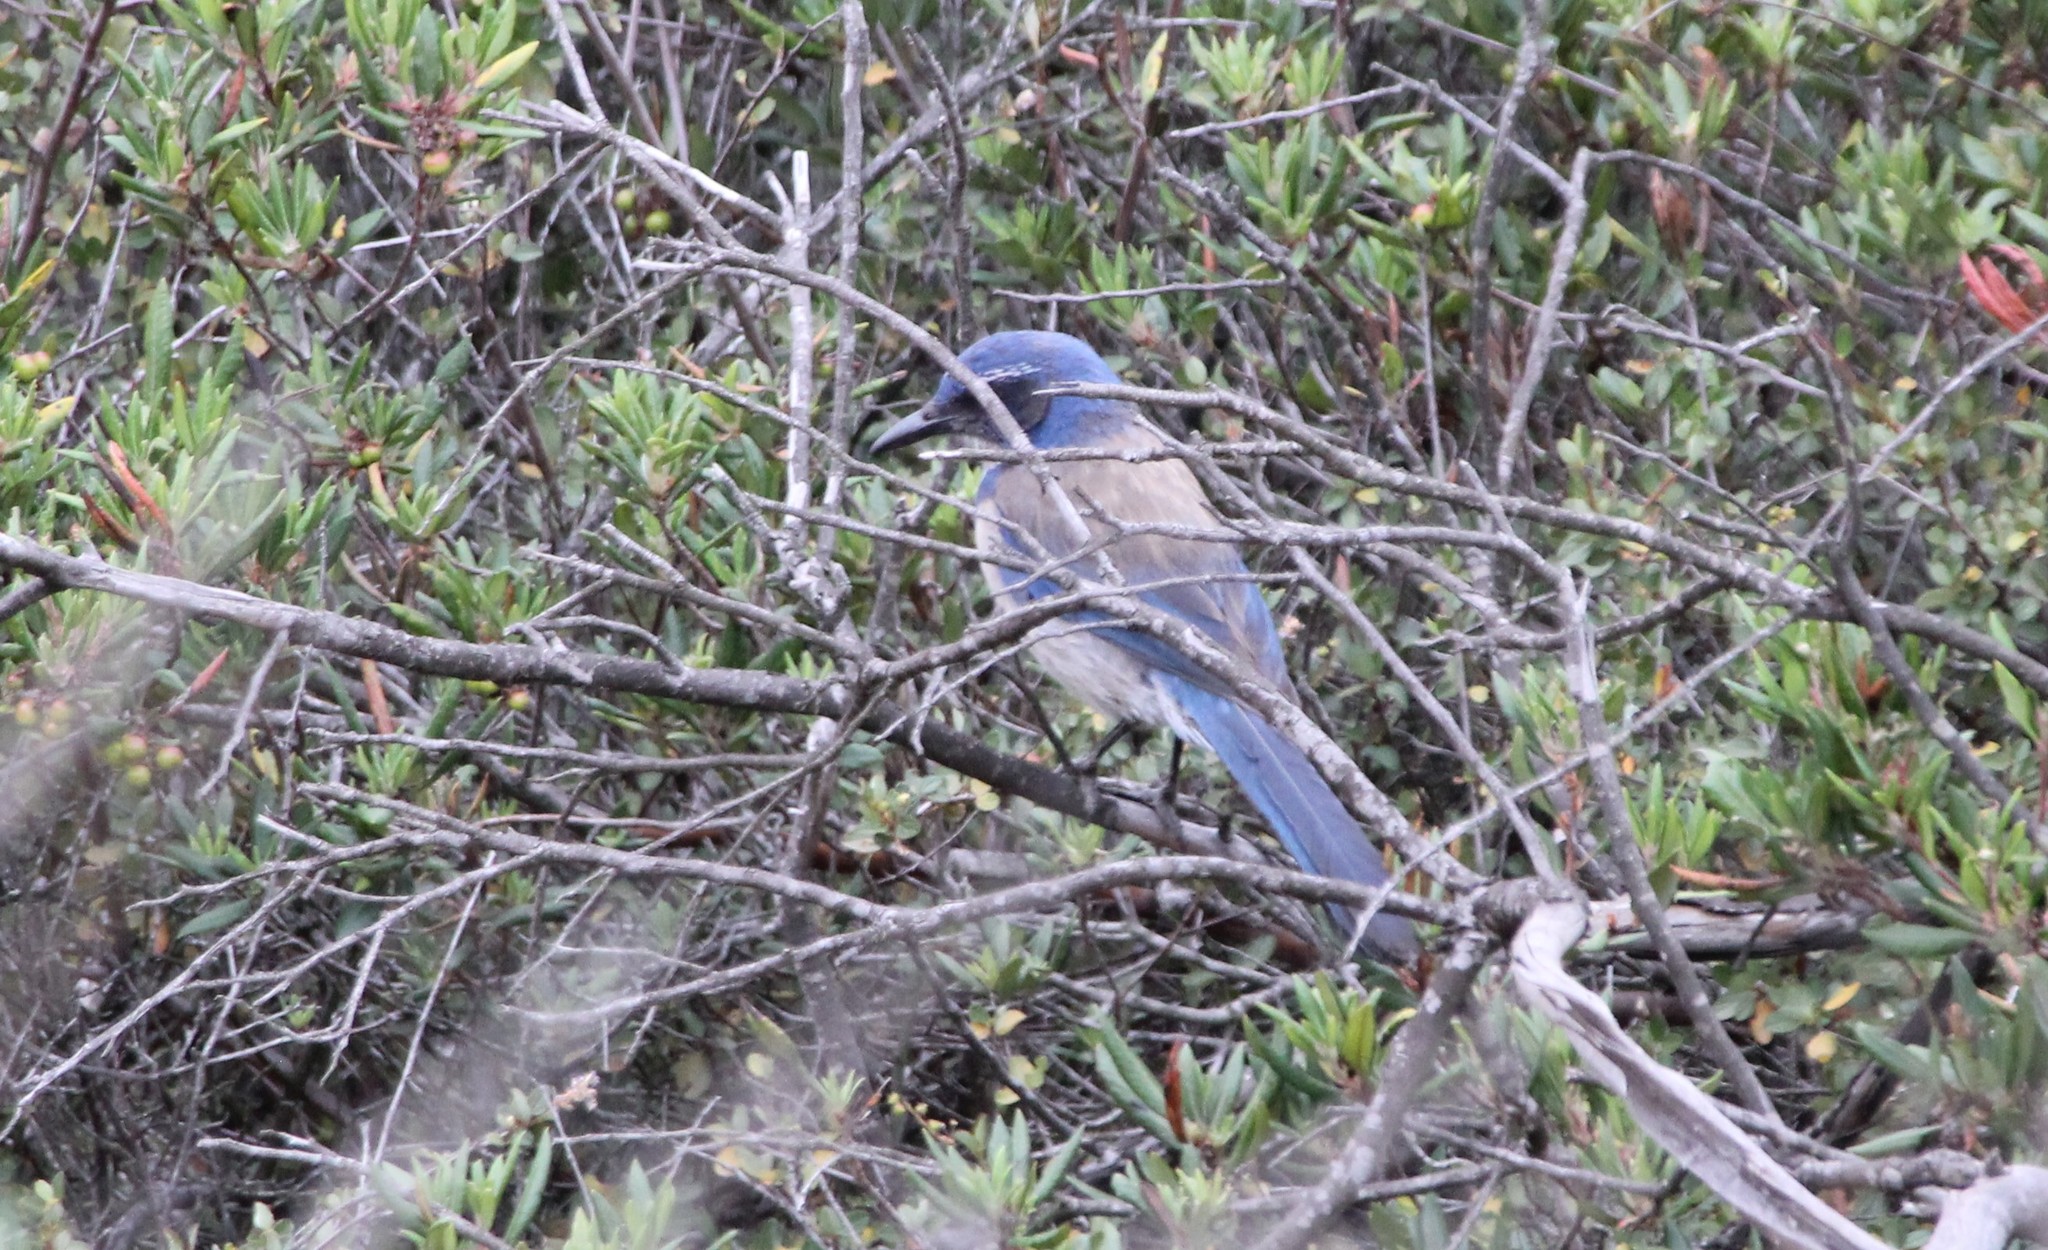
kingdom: Animalia
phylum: Chordata
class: Aves
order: Passeriformes
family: Corvidae
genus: Aphelocoma
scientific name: Aphelocoma californica
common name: California scrub-jay
